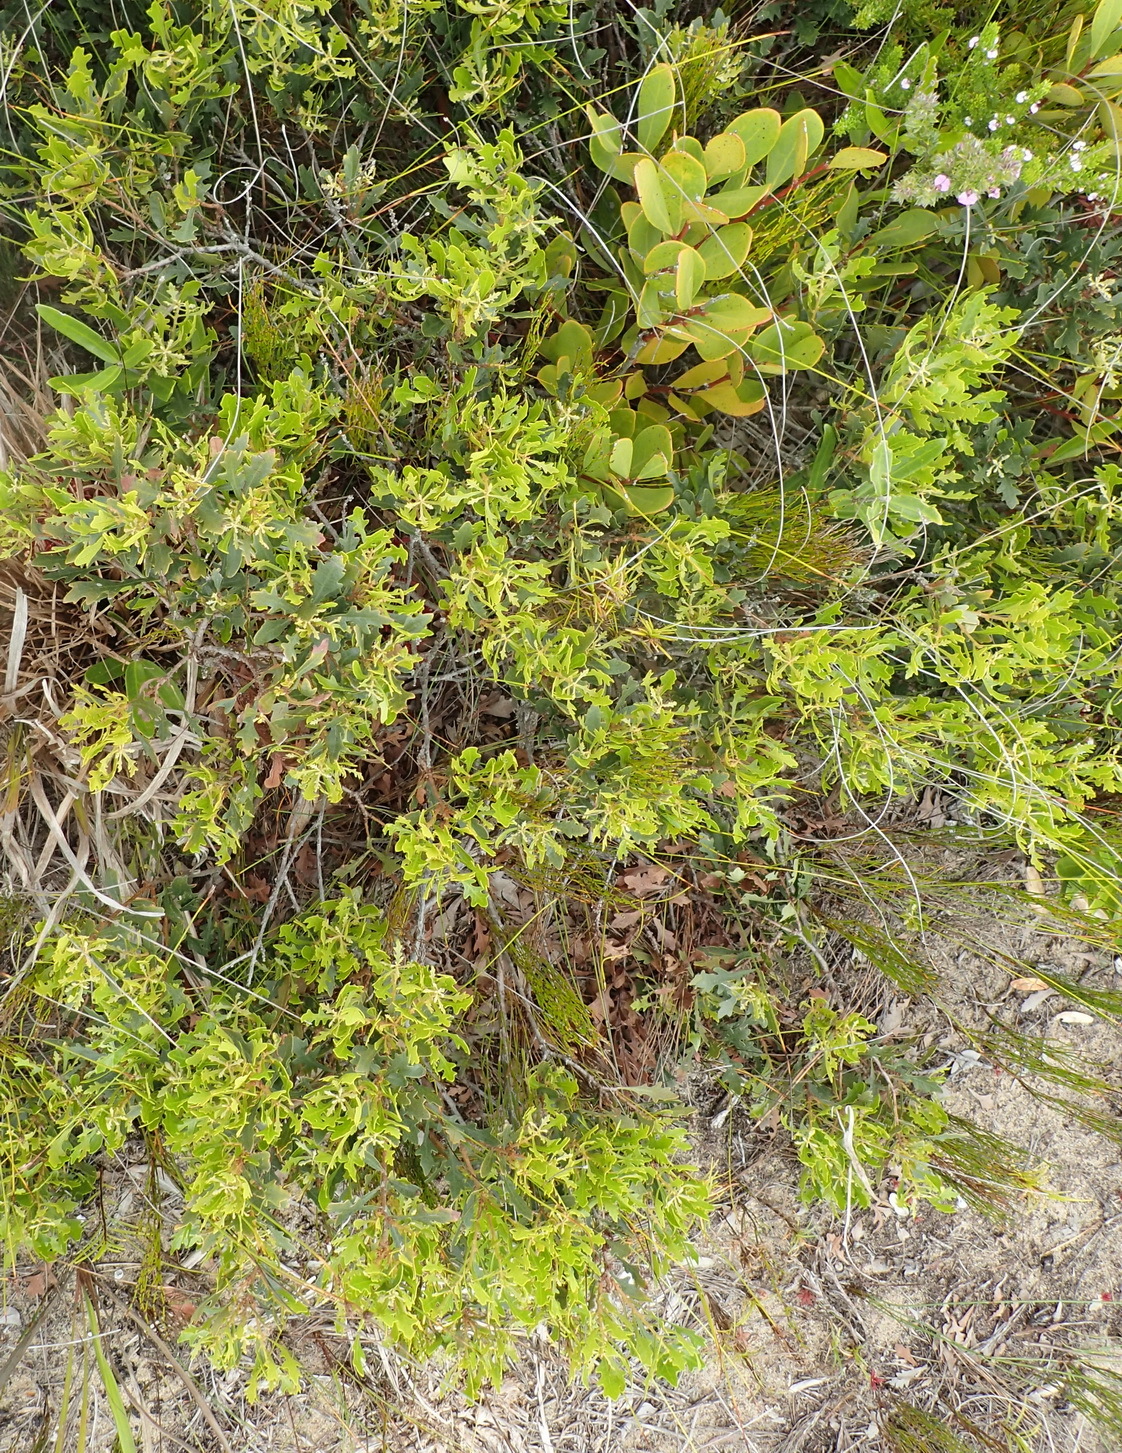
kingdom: Plantae
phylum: Tracheophyta
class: Magnoliopsida
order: Fagales
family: Myricaceae
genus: Morella
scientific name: Morella quercifolia
